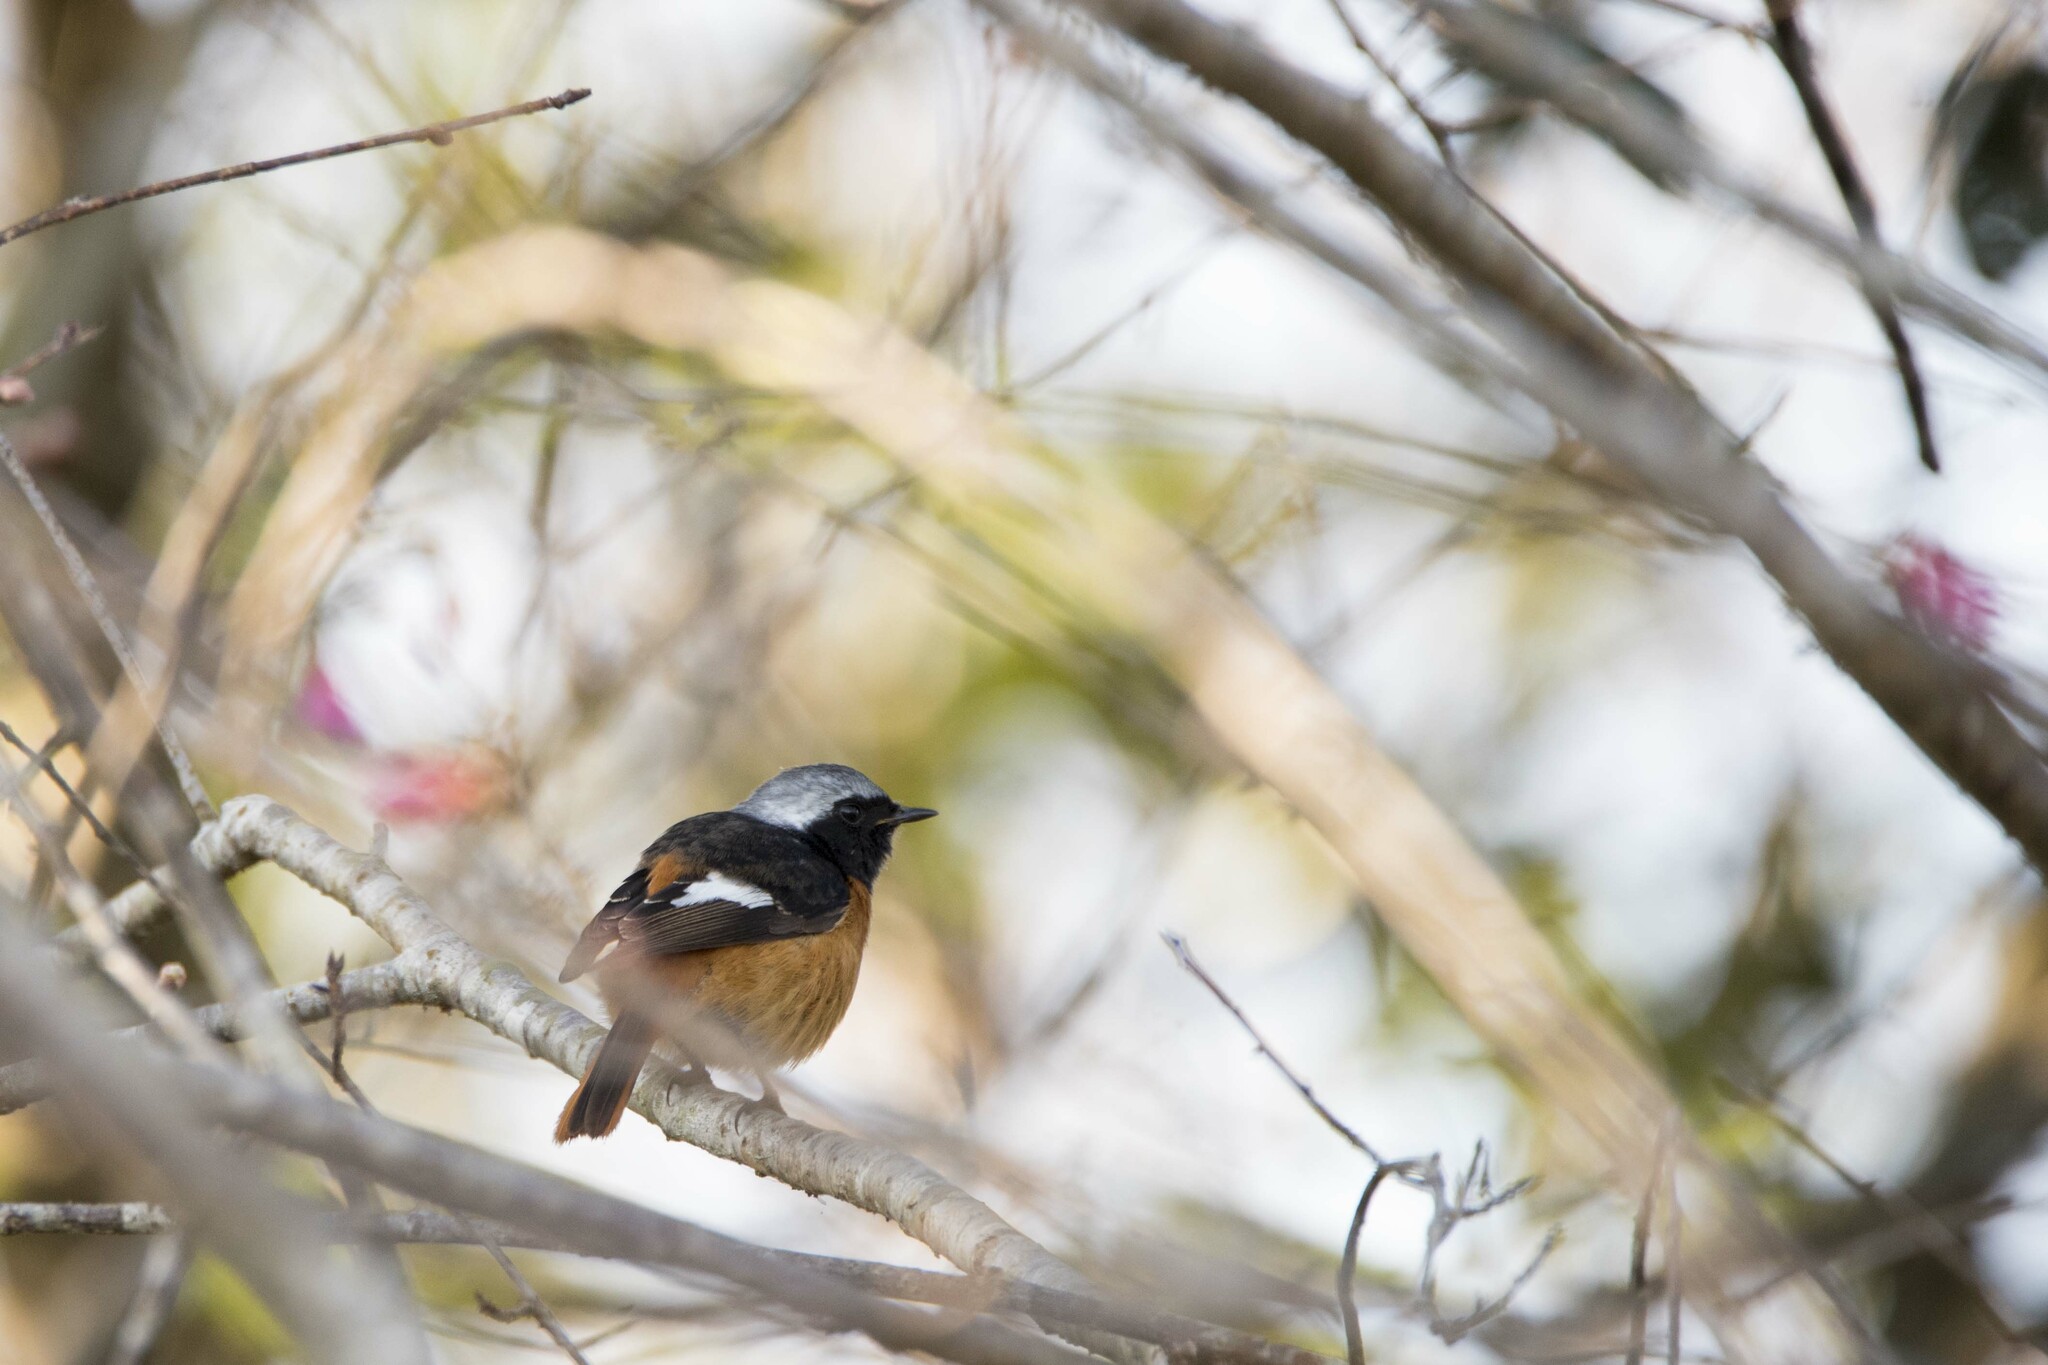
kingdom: Animalia
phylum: Chordata
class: Aves
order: Passeriformes
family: Muscicapidae
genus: Phoenicurus
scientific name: Phoenicurus auroreus
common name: Daurian redstart
